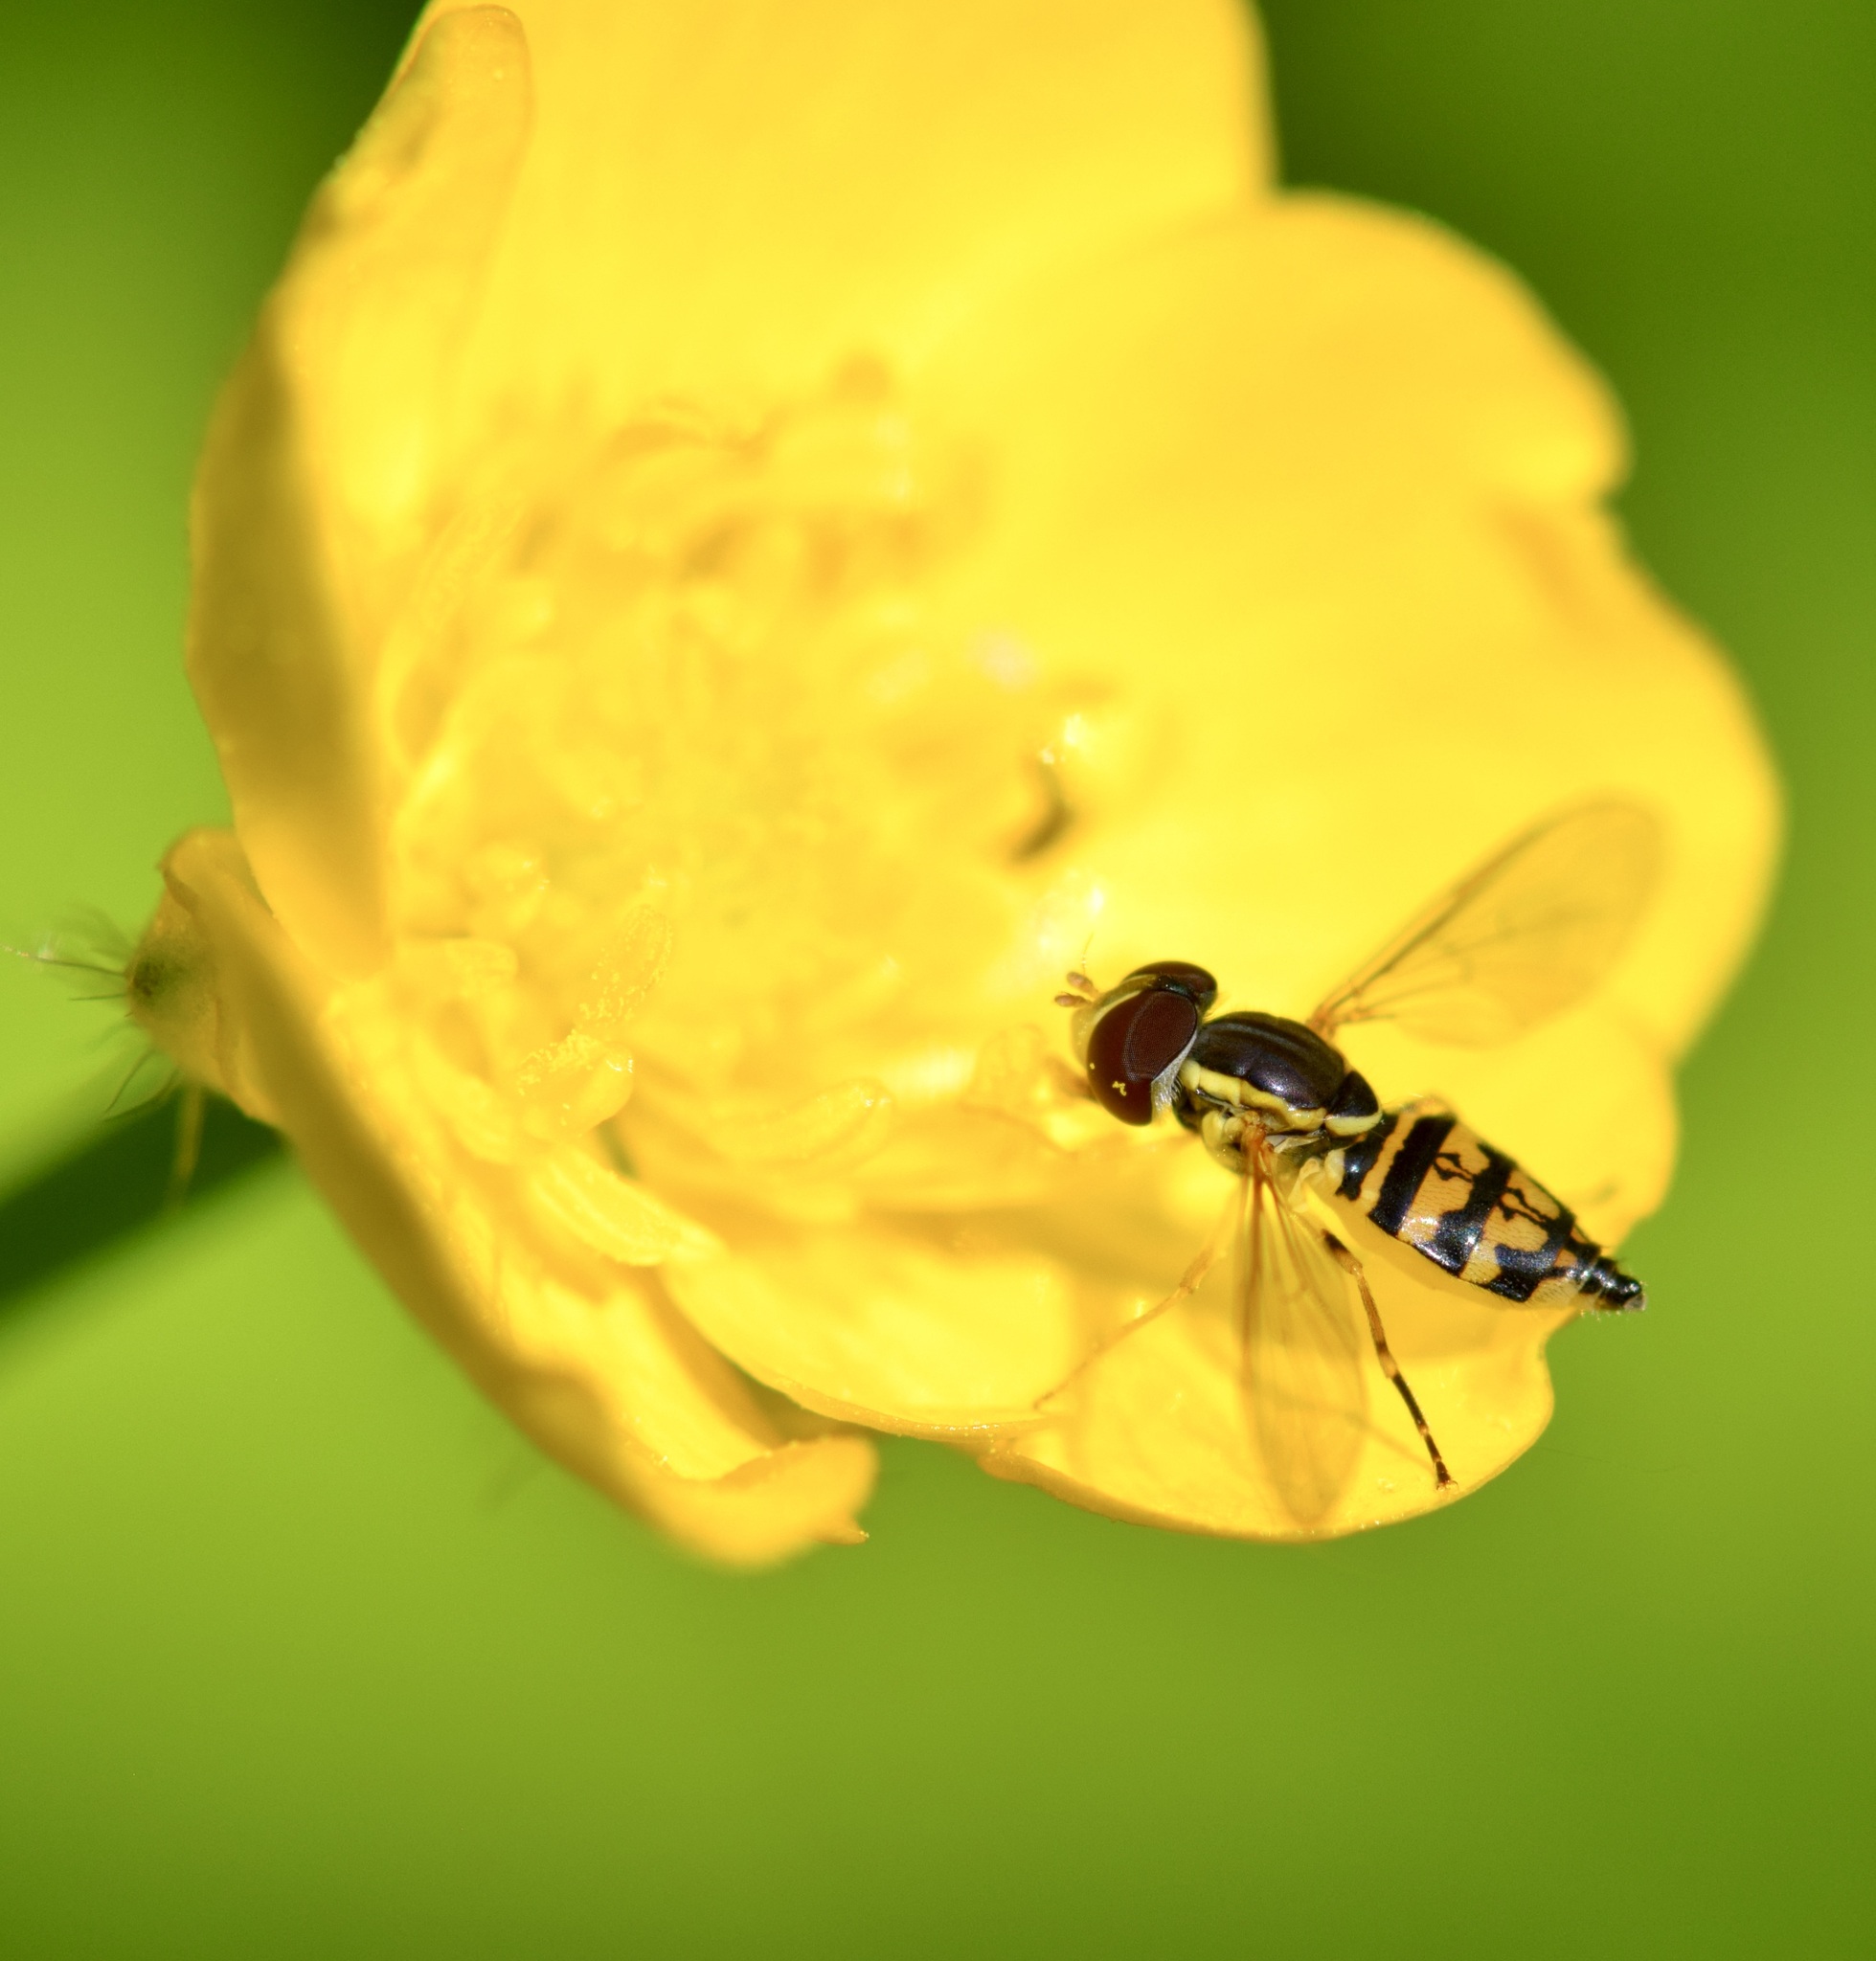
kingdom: Animalia
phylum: Arthropoda
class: Insecta
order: Diptera
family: Syrphidae
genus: Toxomerus
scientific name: Toxomerus geminatus
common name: Eastern calligrapher
